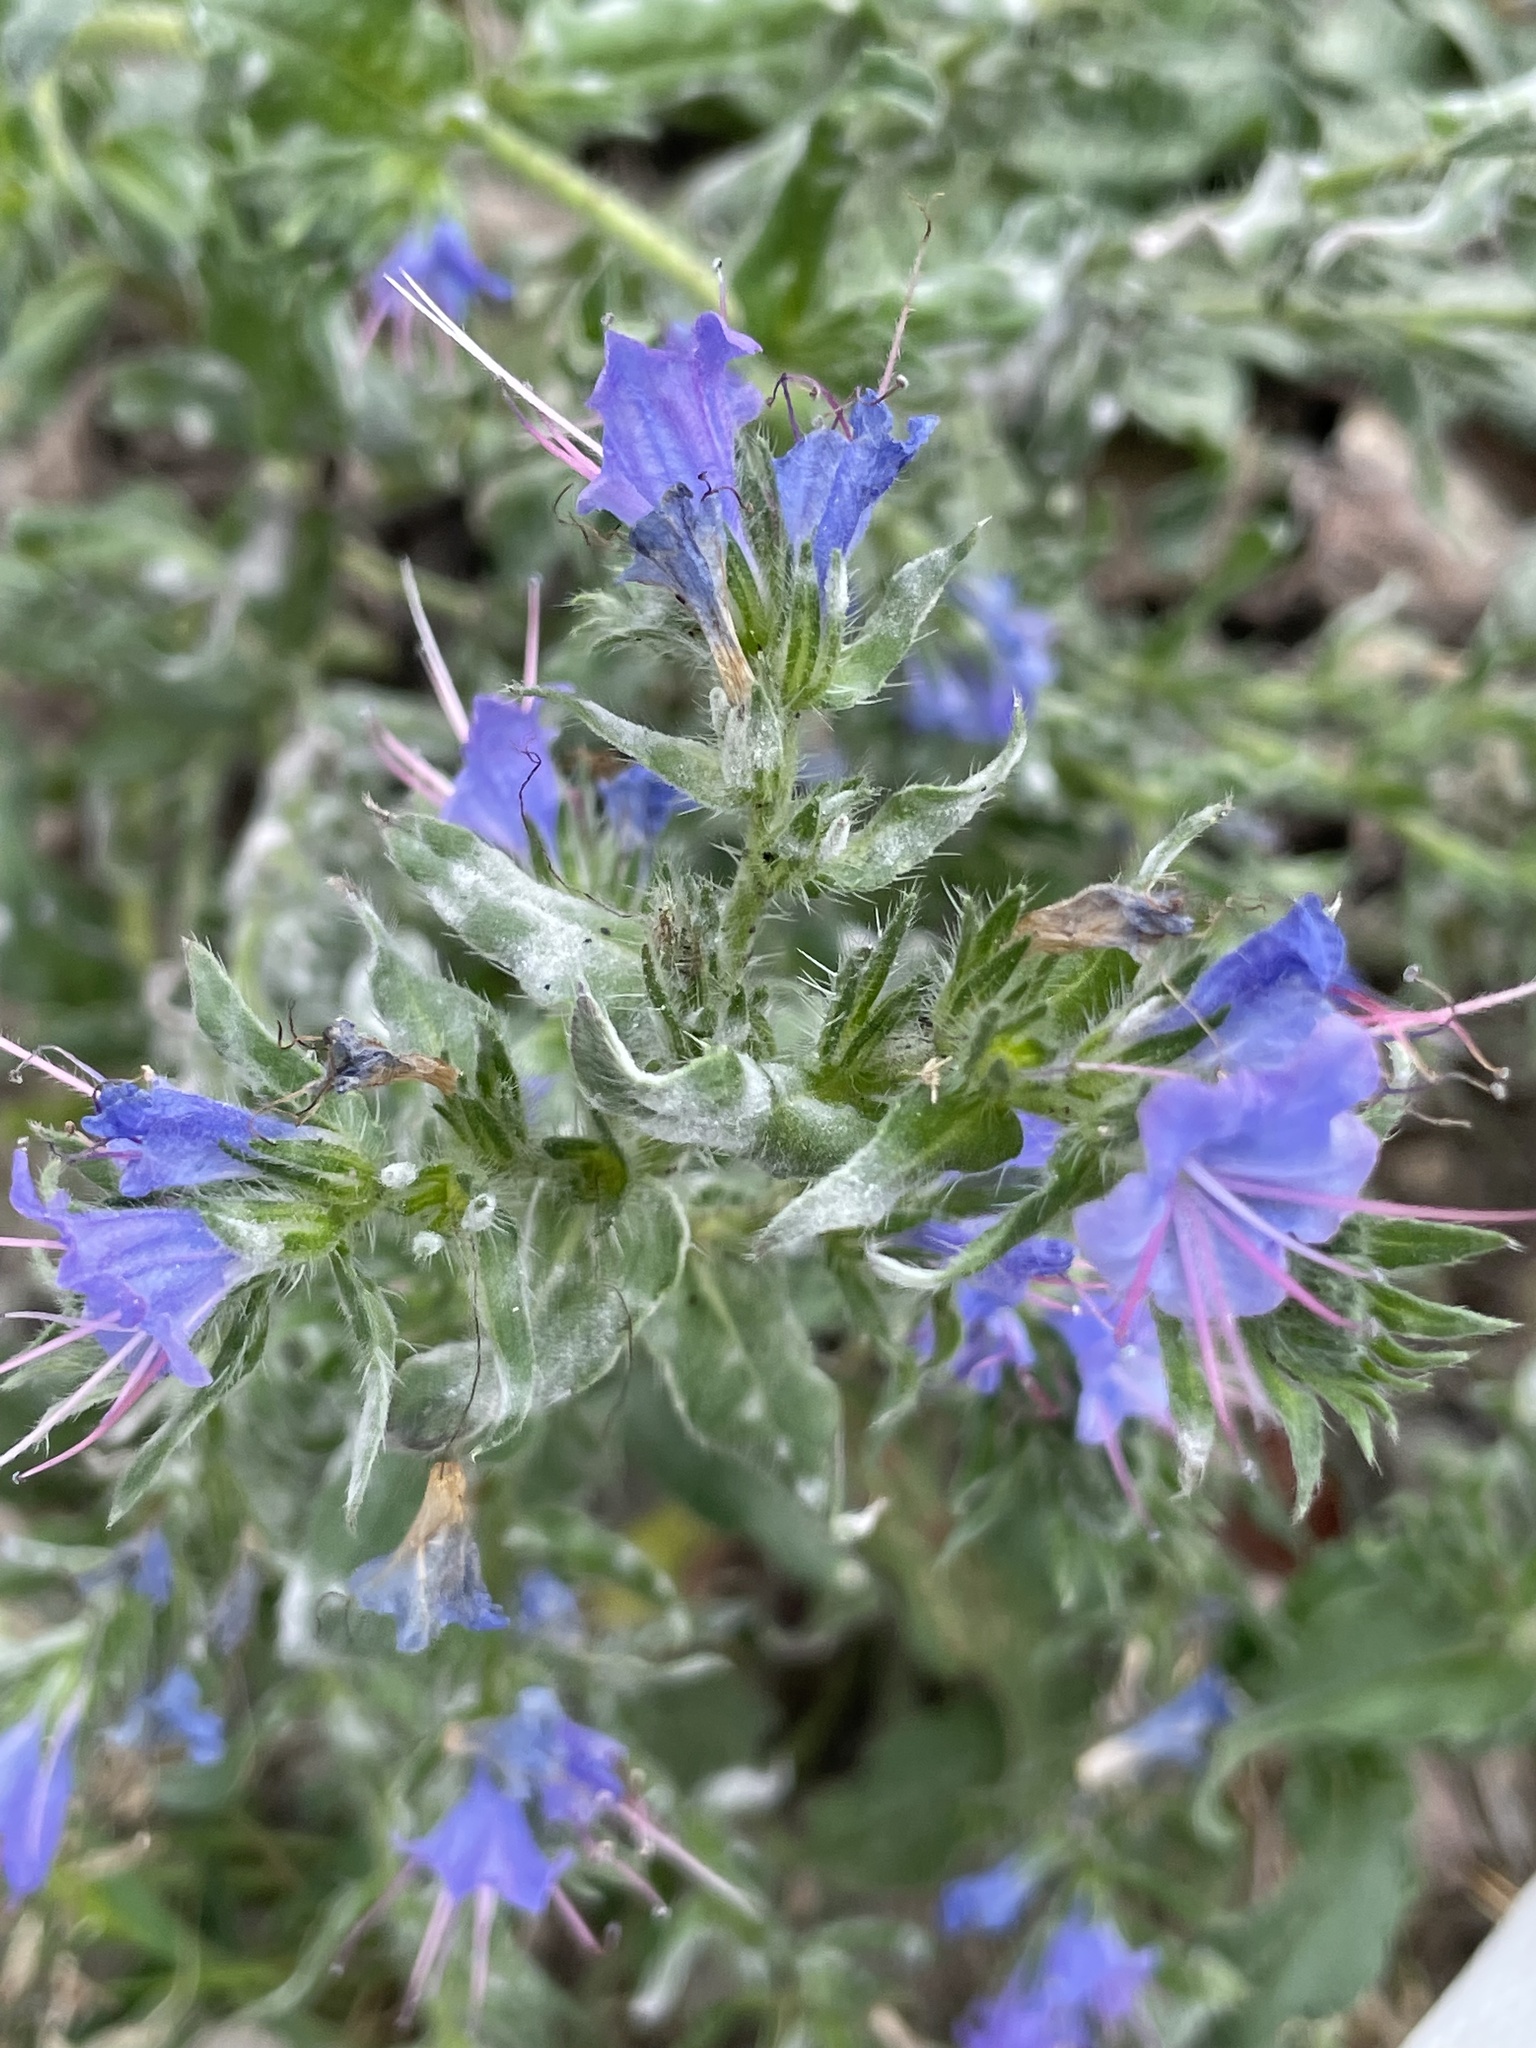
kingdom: Plantae
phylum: Tracheophyta
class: Magnoliopsida
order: Boraginales
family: Boraginaceae
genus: Echium
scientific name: Echium vulgare
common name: Common viper's bugloss
